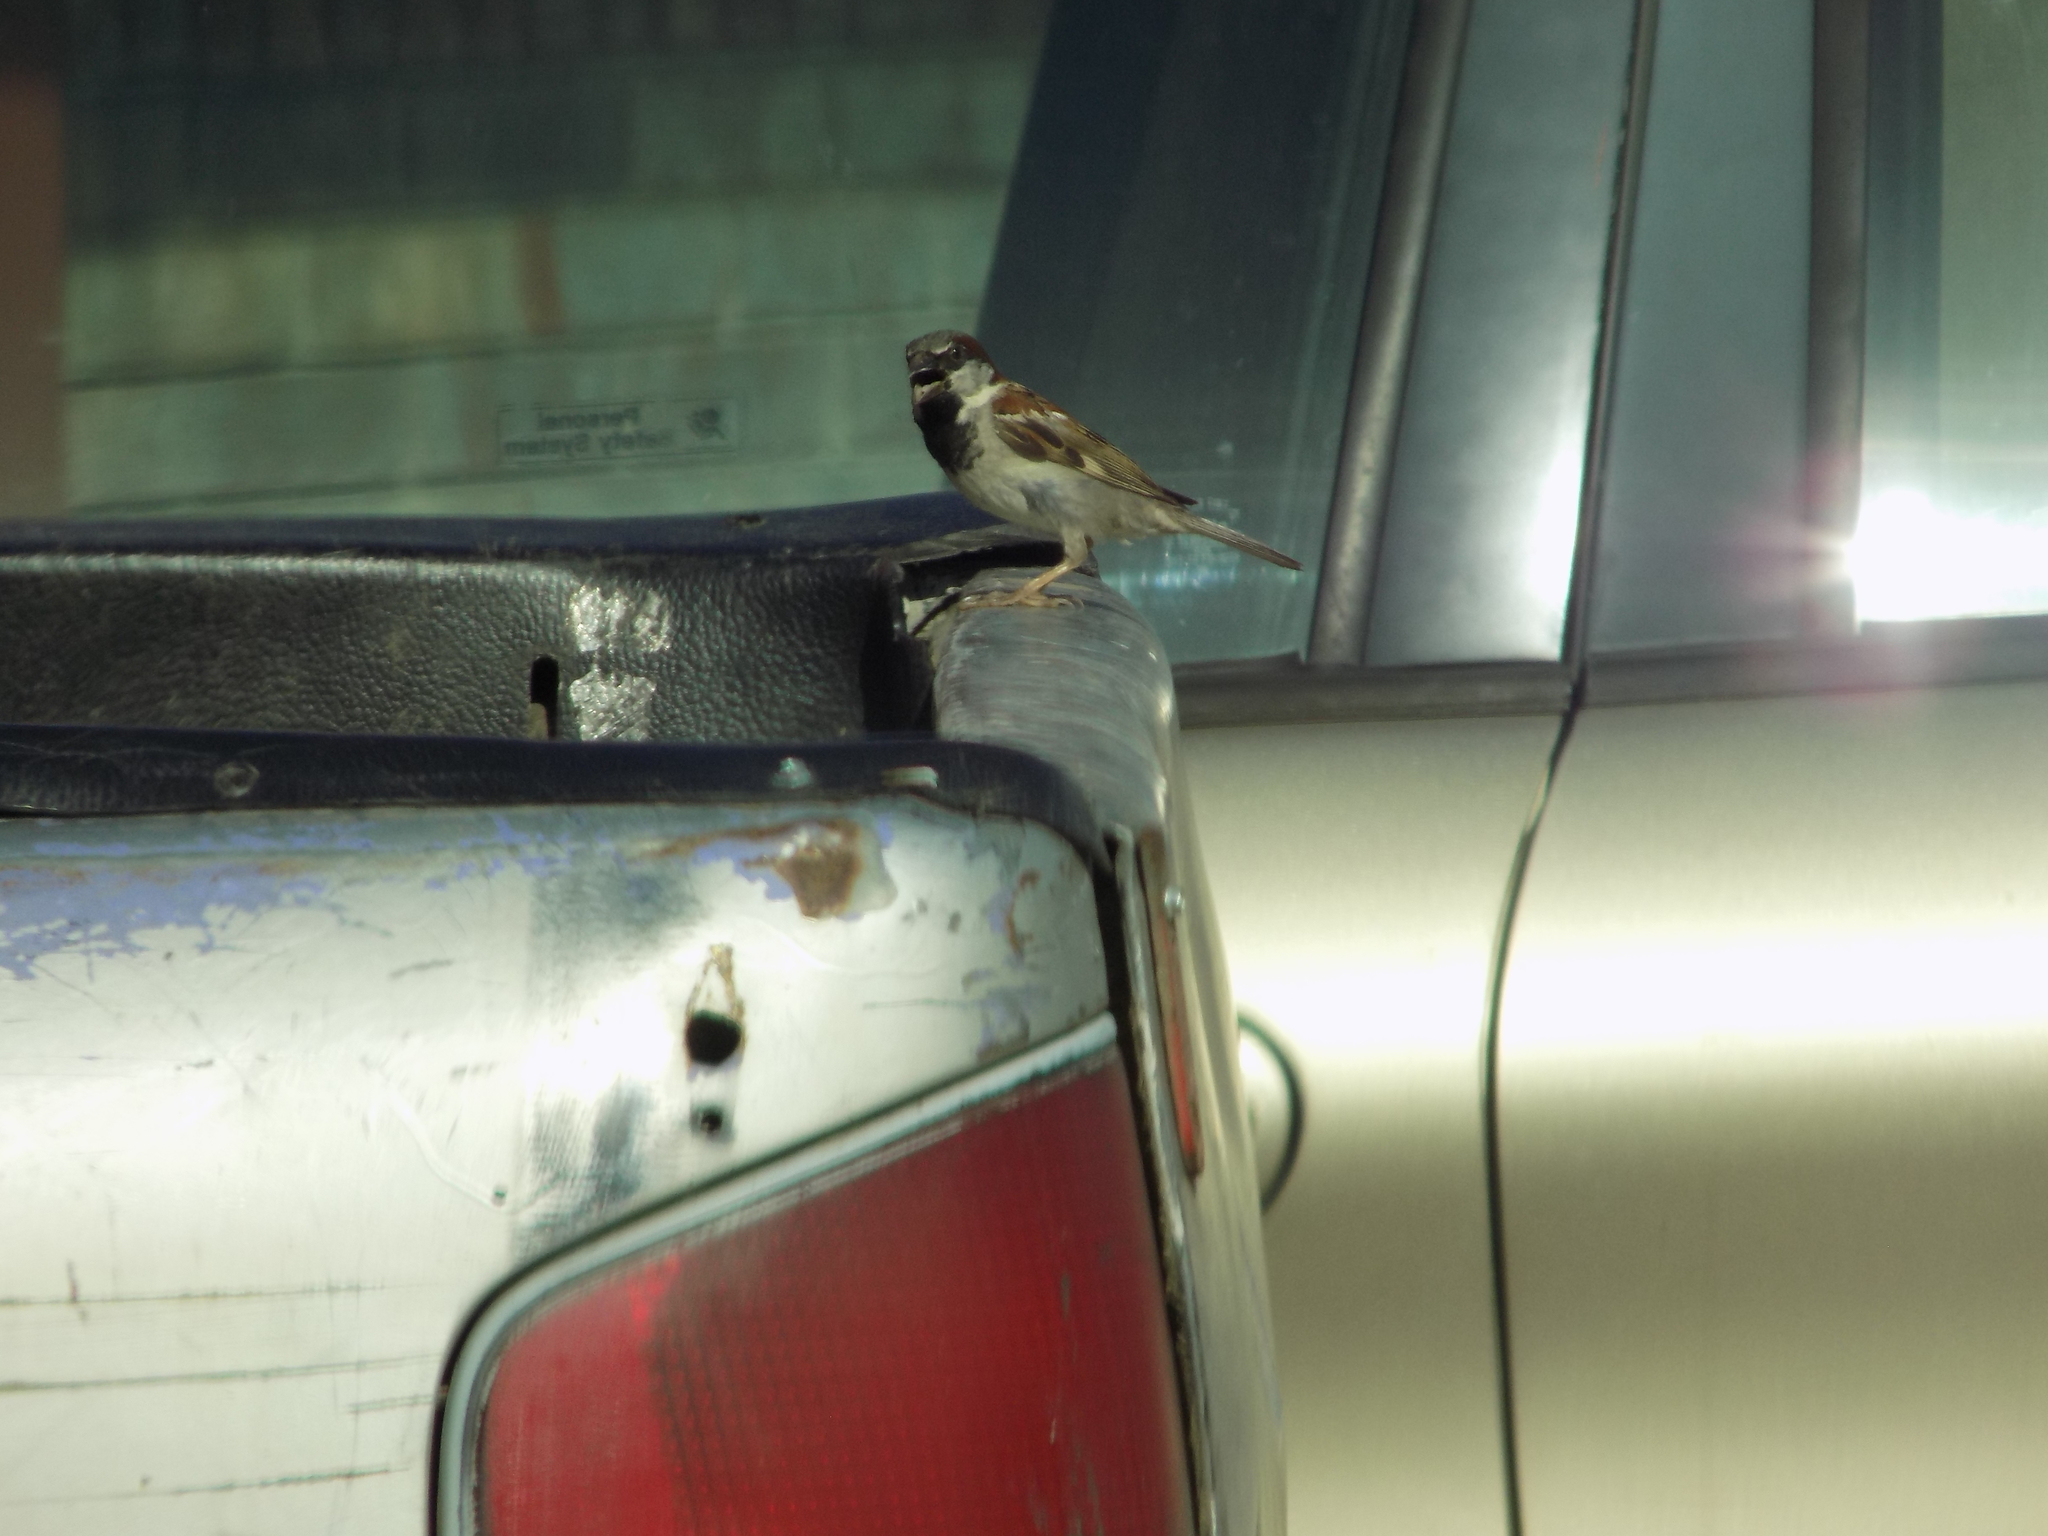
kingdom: Animalia
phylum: Chordata
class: Aves
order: Passeriformes
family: Passeridae
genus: Passer
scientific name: Passer domesticus
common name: House sparrow
